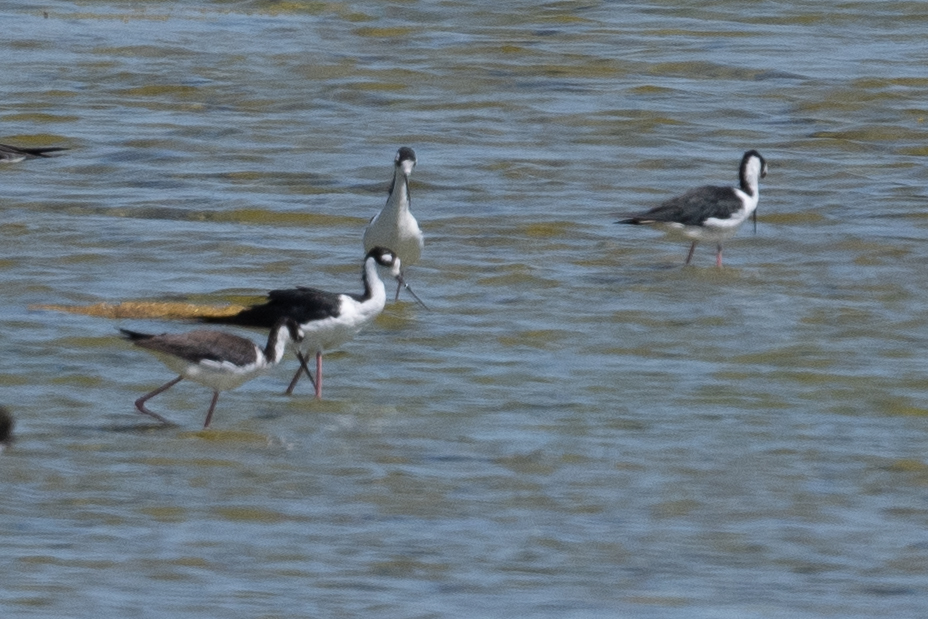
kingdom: Animalia
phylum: Chordata
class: Aves
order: Charadriiformes
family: Recurvirostridae
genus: Himantopus
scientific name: Himantopus mexicanus
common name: Black-necked stilt
